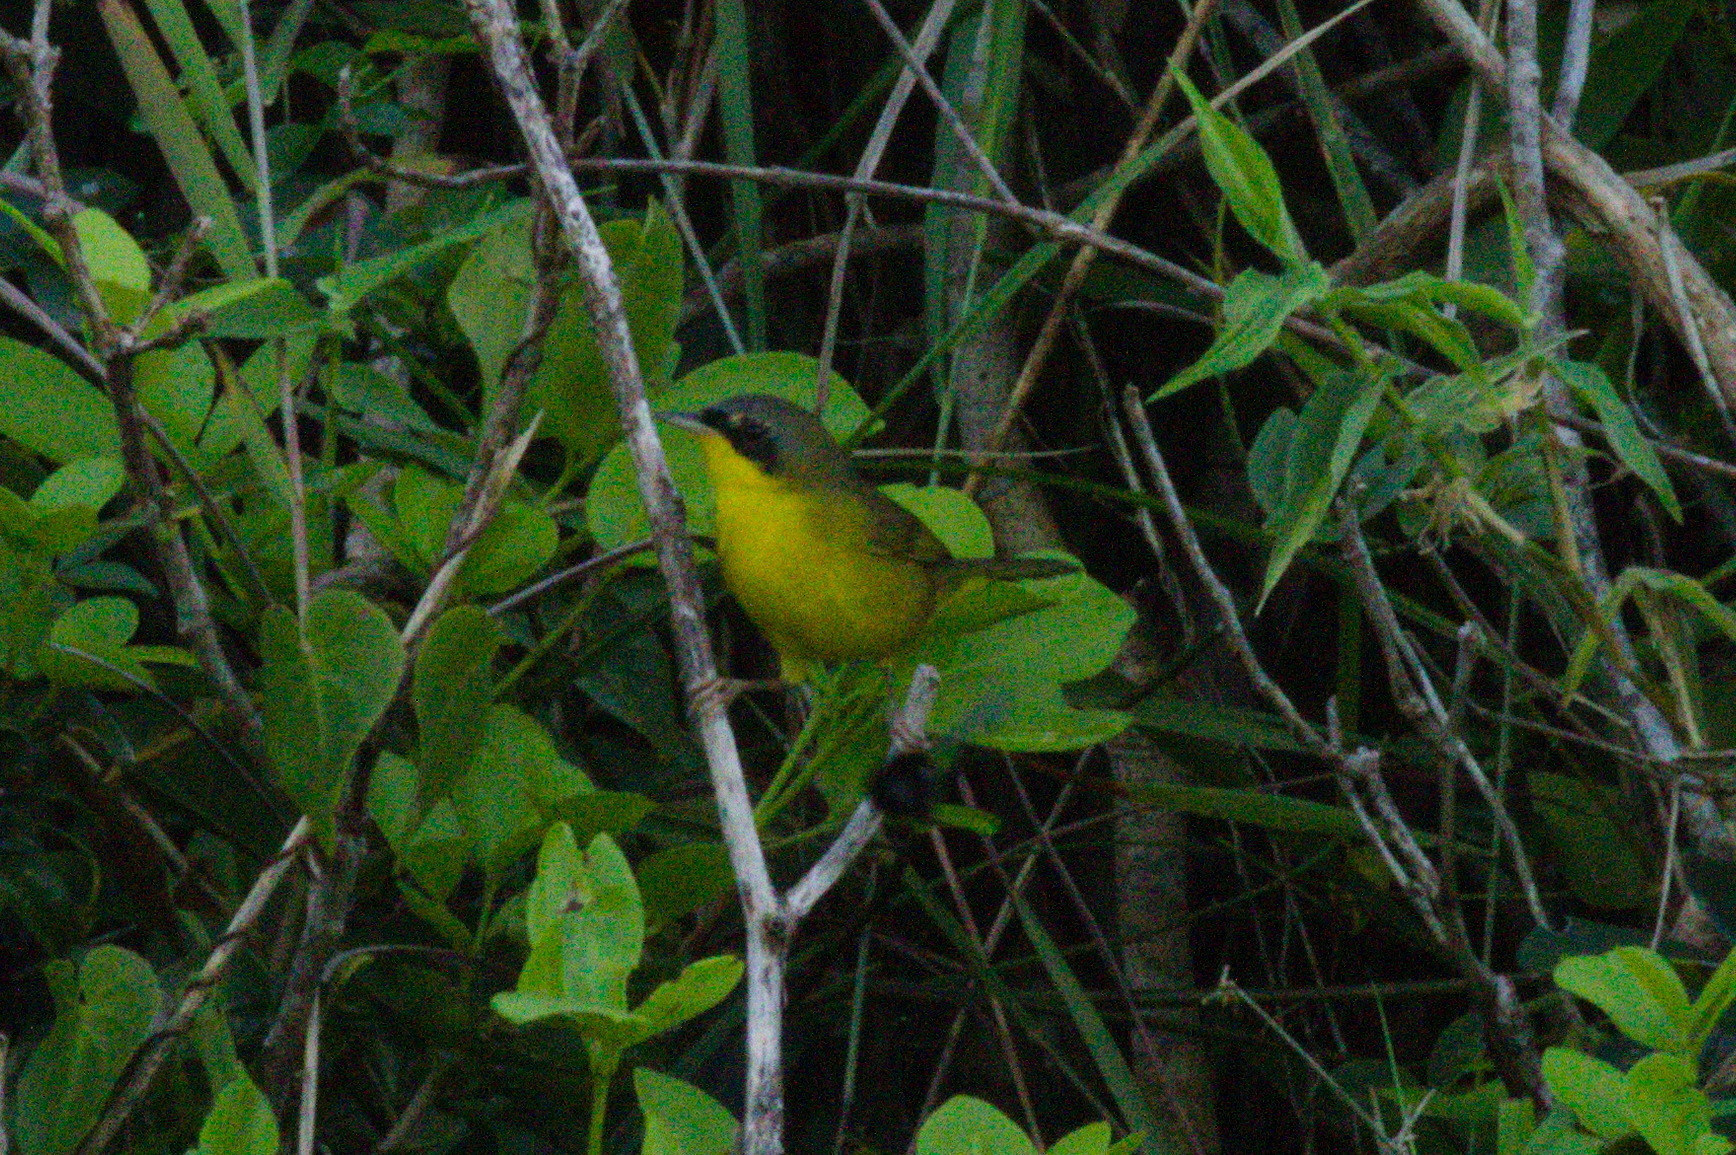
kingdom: Animalia
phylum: Chordata
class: Aves
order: Passeriformes
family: Parulidae
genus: Geothlypis
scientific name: Geothlypis velata
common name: Southern yellowthroat
